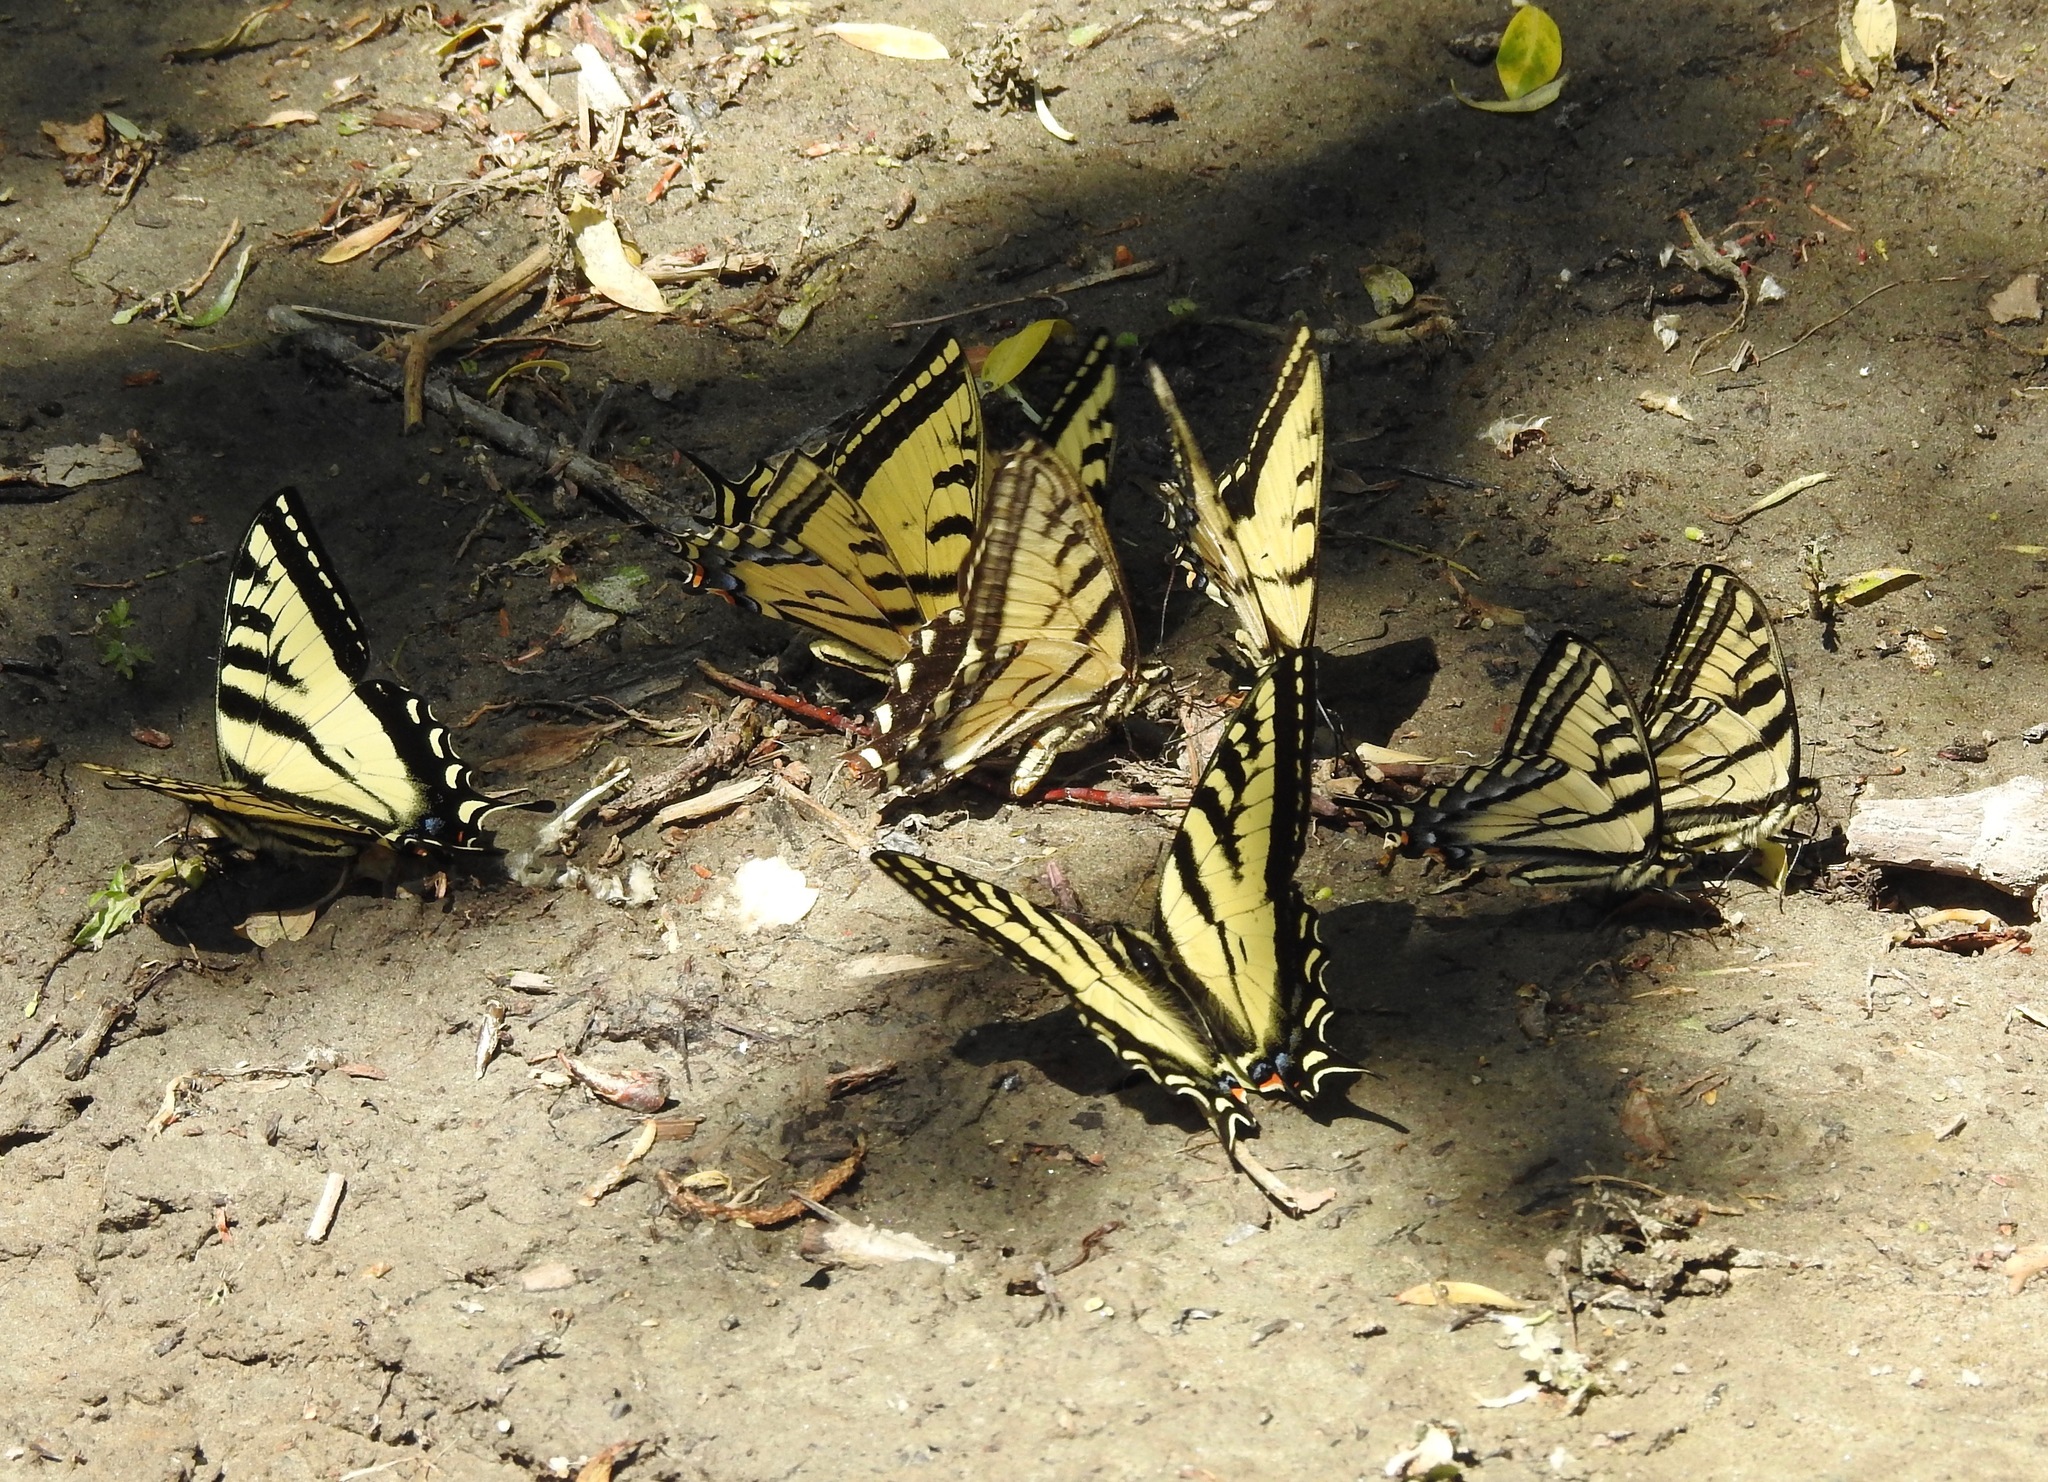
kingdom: Animalia
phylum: Arthropoda
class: Insecta
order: Lepidoptera
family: Papilionidae
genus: Papilio
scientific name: Papilio rutulus
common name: Western tiger swallowtail
